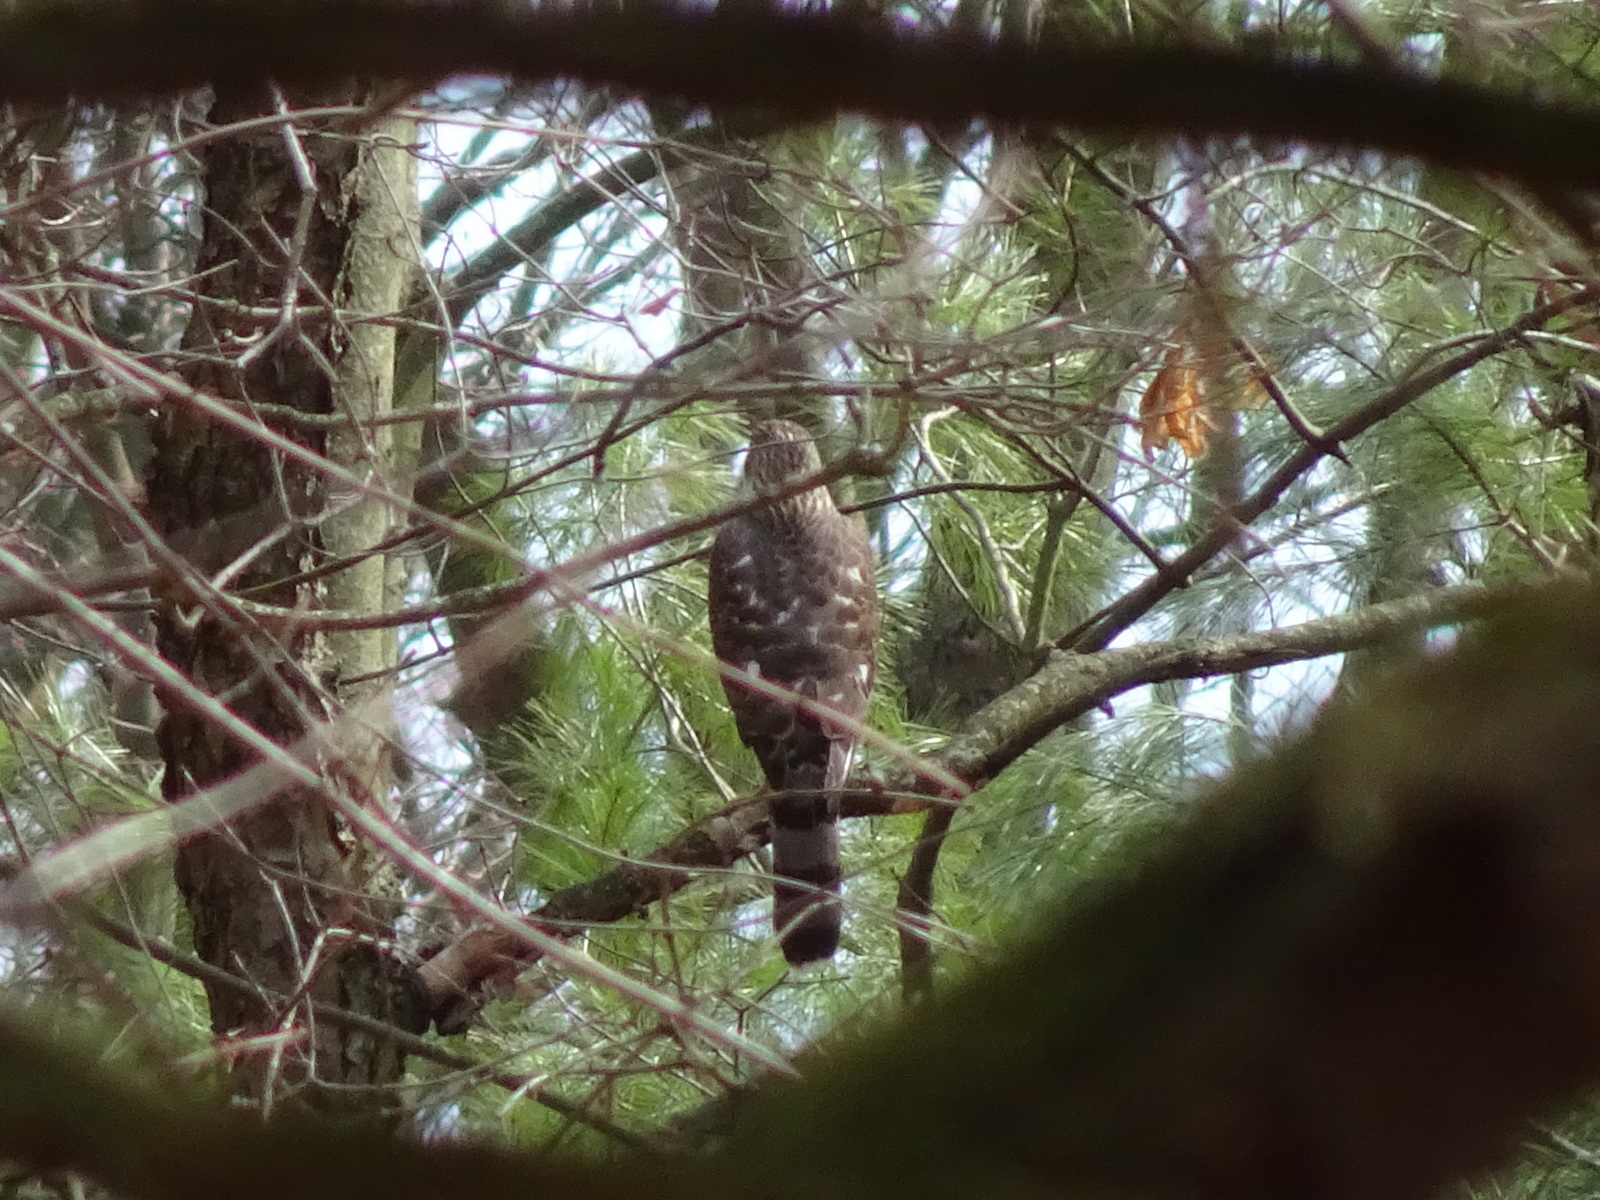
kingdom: Animalia
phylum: Chordata
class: Aves
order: Accipitriformes
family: Accipitridae
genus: Accipiter
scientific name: Accipiter cooperii
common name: Cooper's hawk
